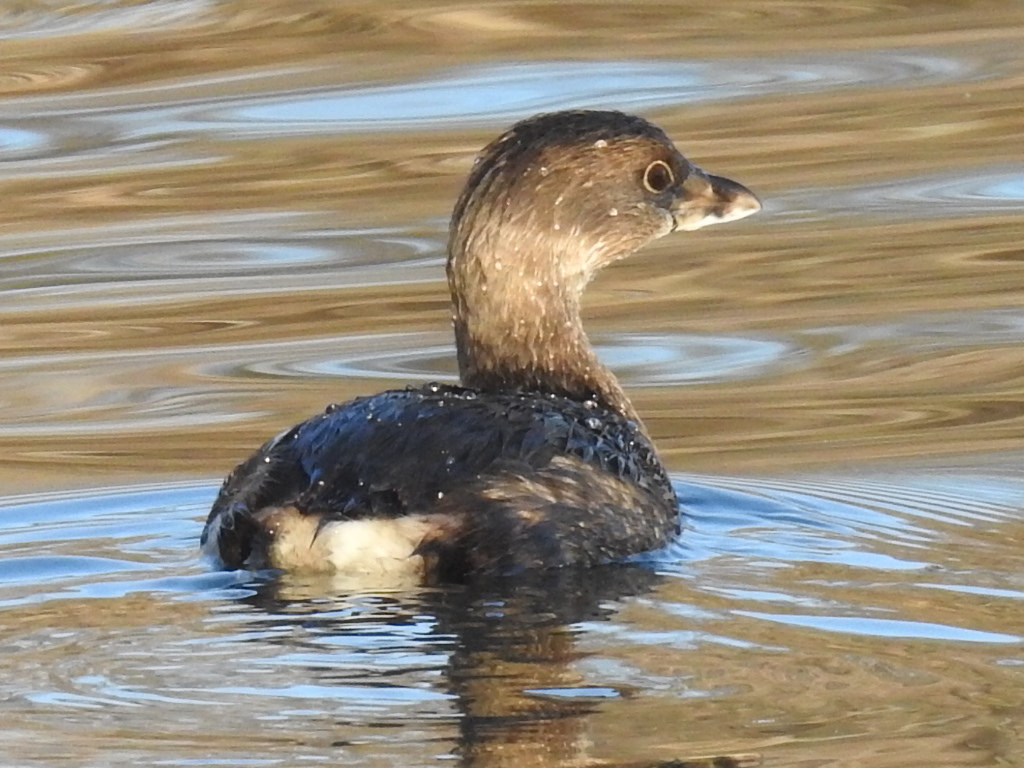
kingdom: Animalia
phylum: Chordata
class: Aves
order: Podicipediformes
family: Podicipedidae
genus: Podilymbus
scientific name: Podilymbus podiceps
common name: Pied-billed grebe
